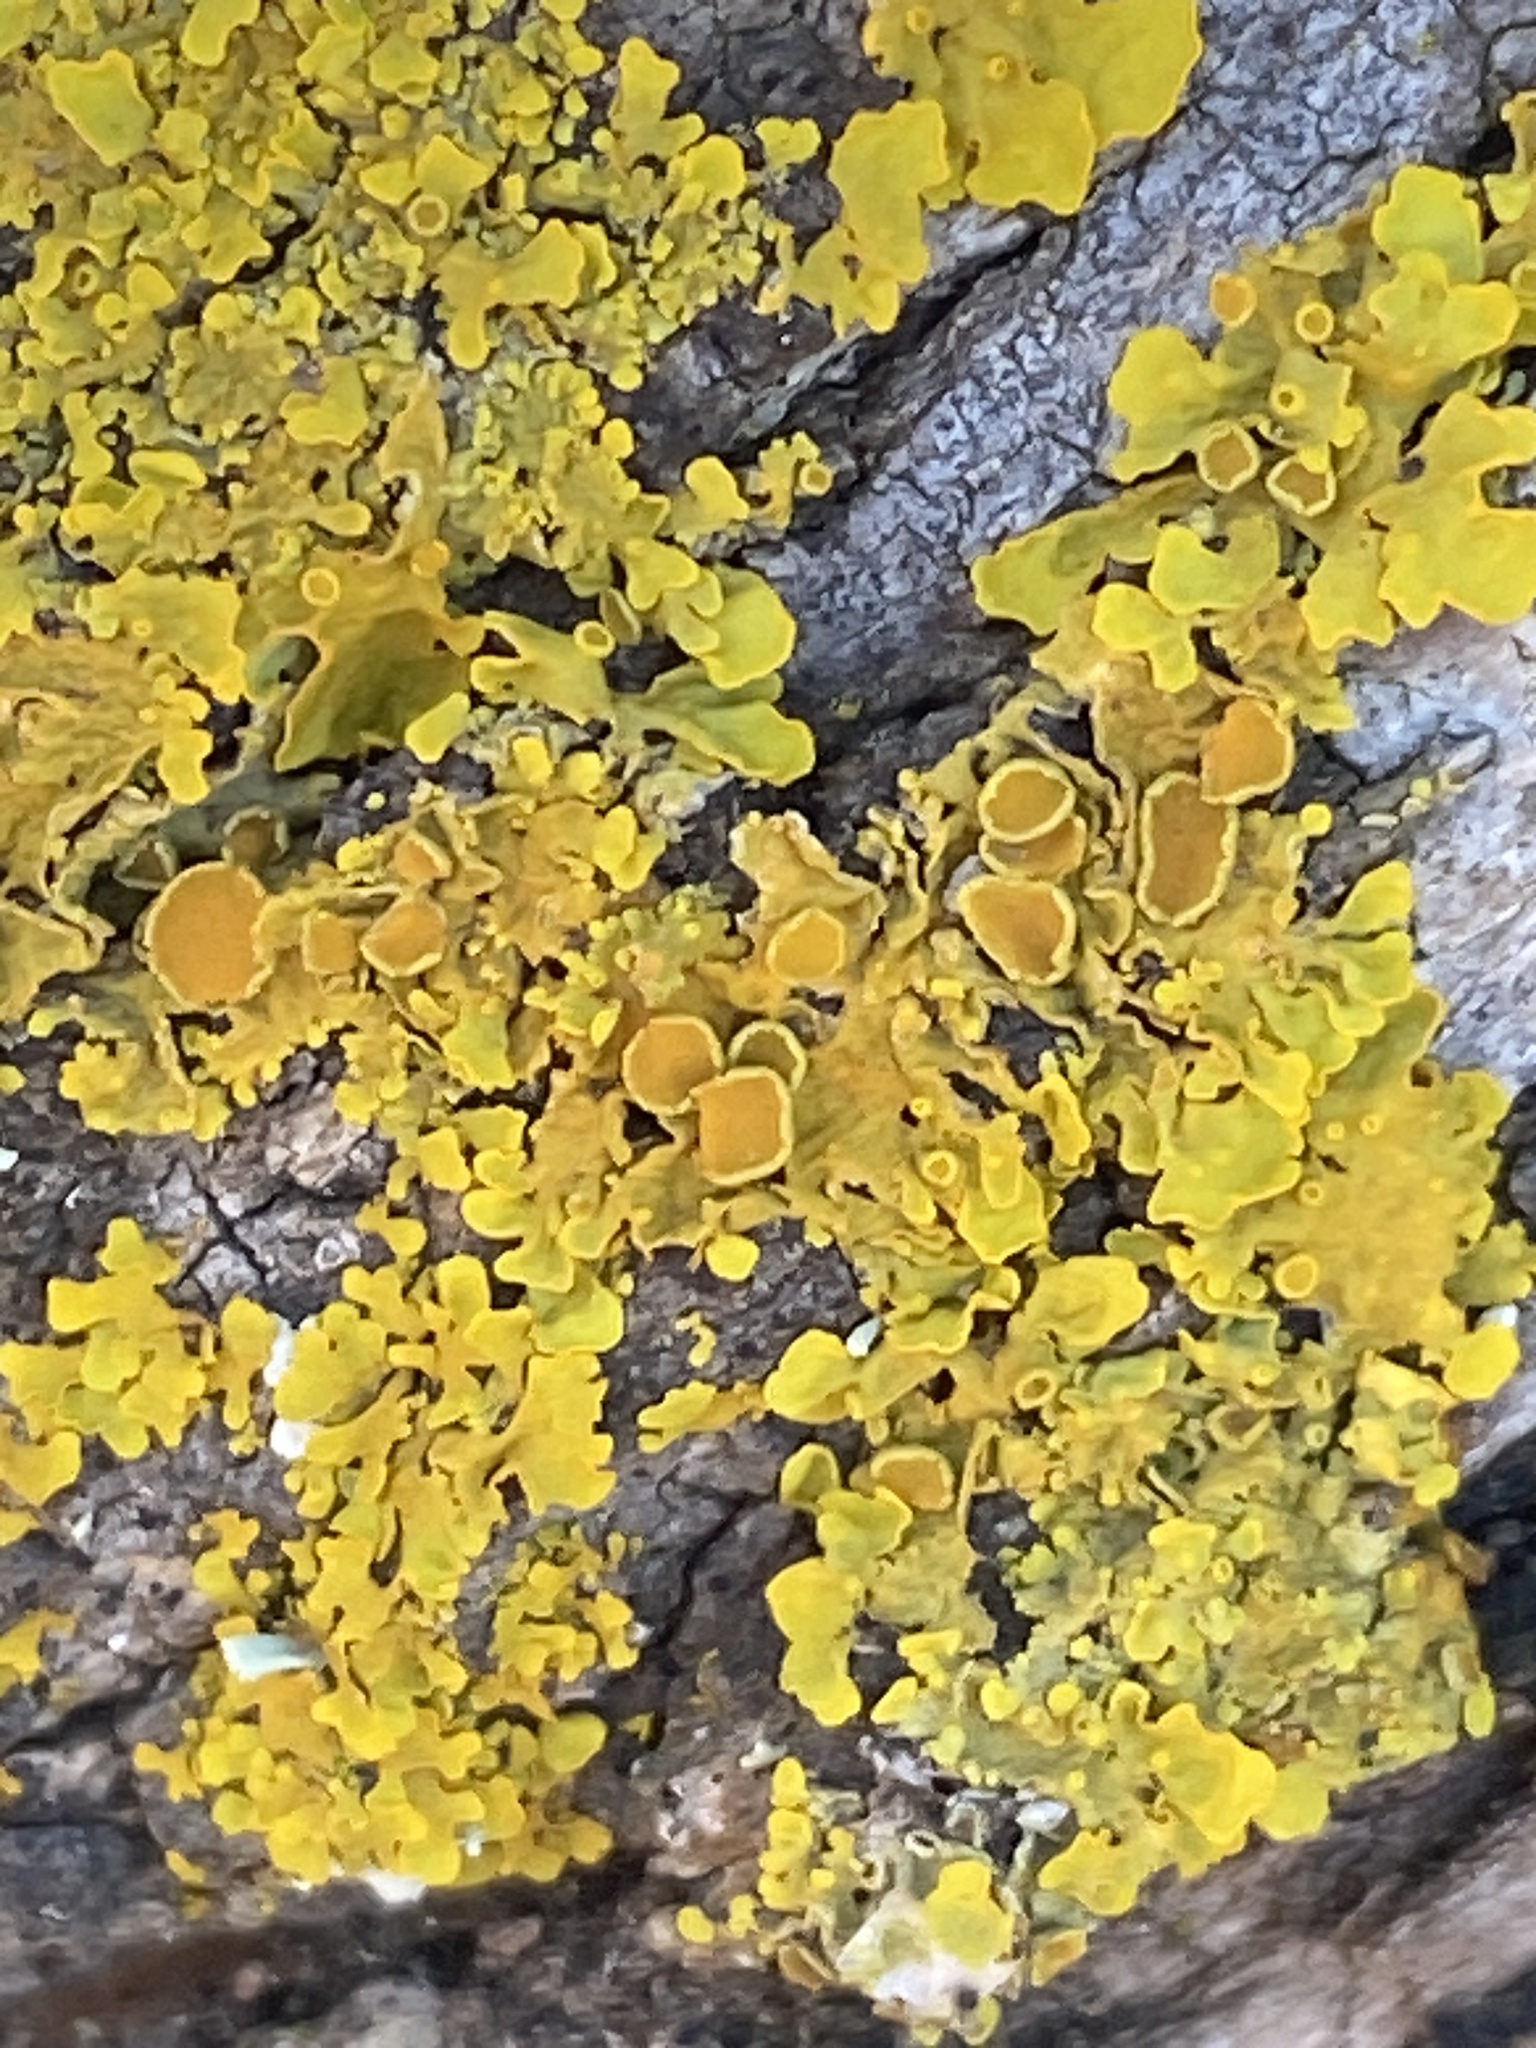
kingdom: Fungi
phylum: Ascomycota
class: Lecanoromycetes
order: Teloschistales
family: Teloschistaceae
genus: Xanthoria
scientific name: Xanthoria parietina
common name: Common orange lichen
